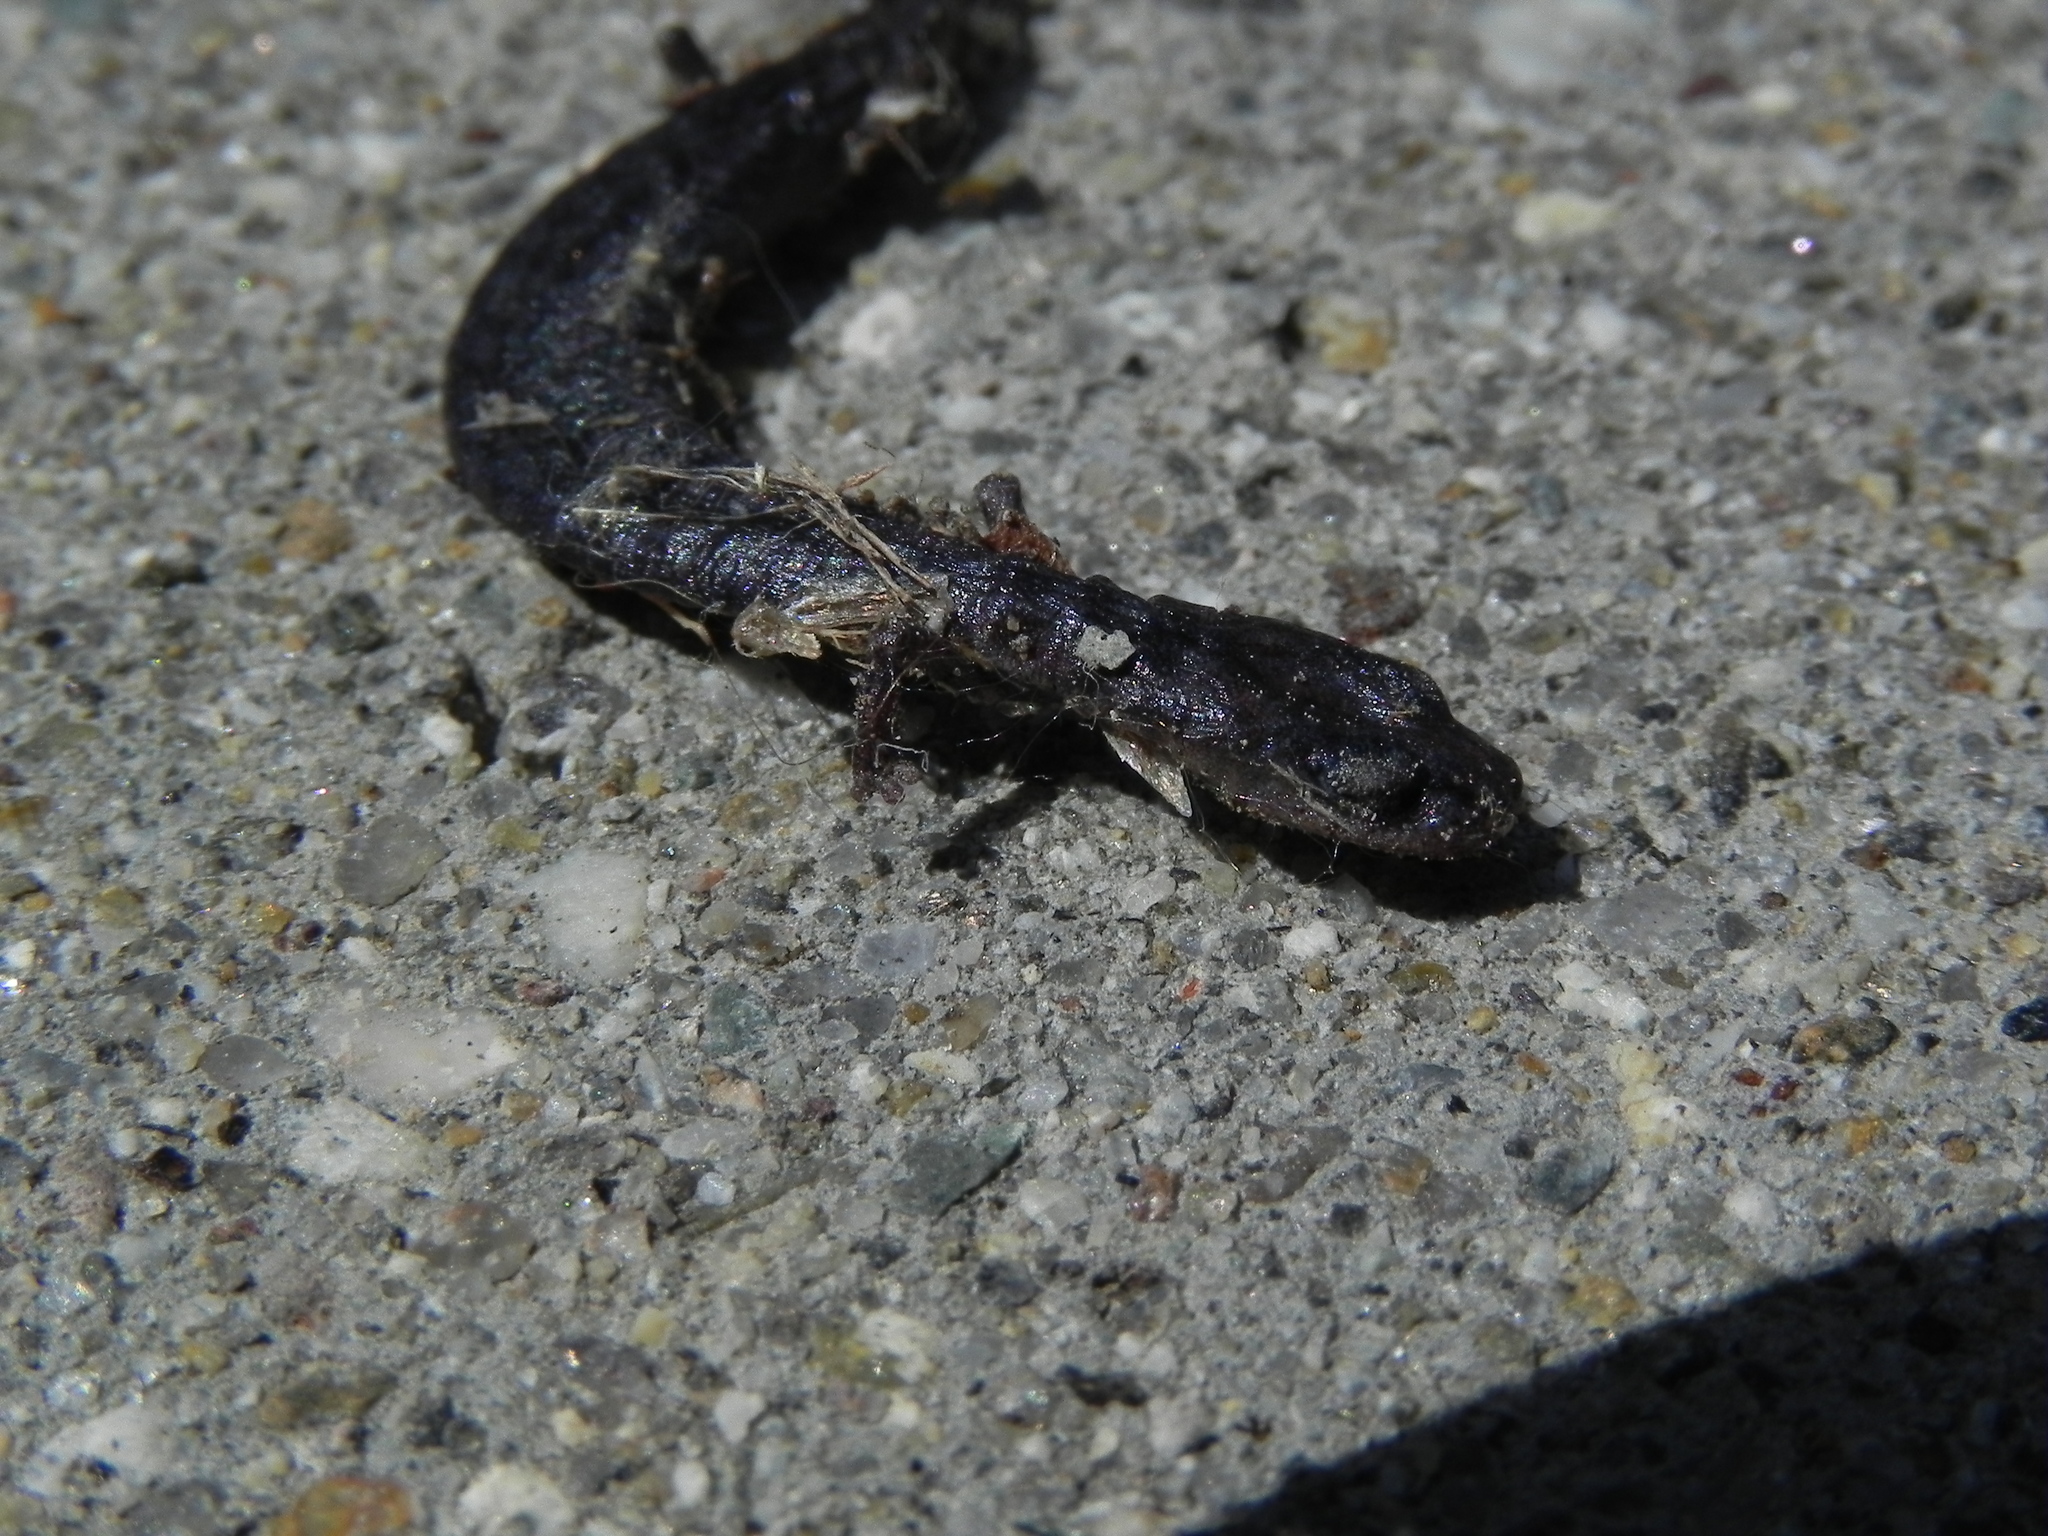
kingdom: Animalia
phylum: Chordata
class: Amphibia
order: Caudata
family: Plethodontidae
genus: Batrachoseps
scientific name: Batrachoseps major
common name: Garden slender salamander
